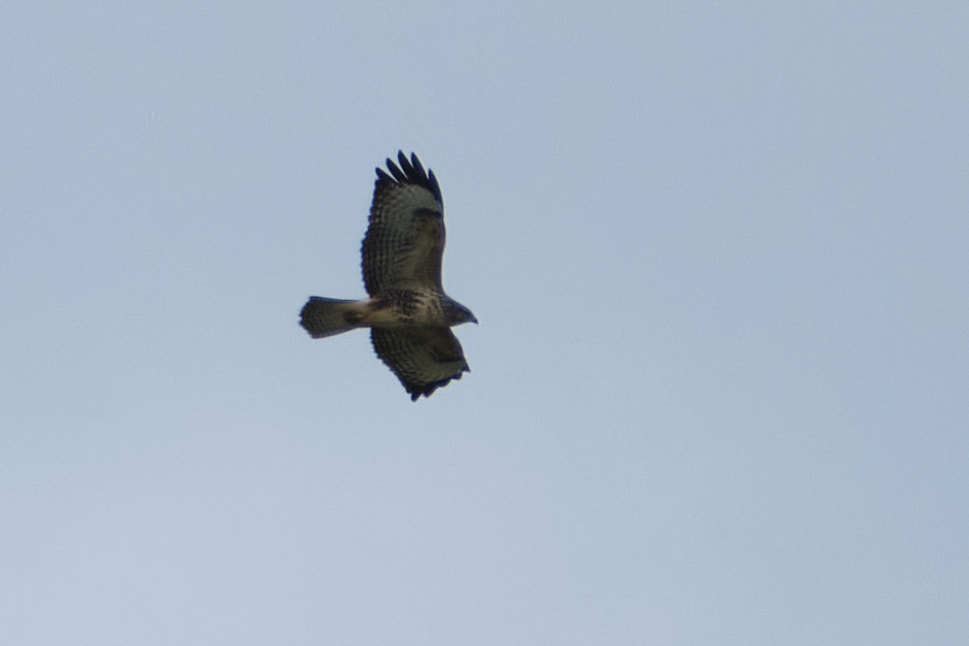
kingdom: Animalia
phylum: Chordata
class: Aves
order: Accipitriformes
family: Accipitridae
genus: Buteo
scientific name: Buteo buteo
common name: Common buzzard
